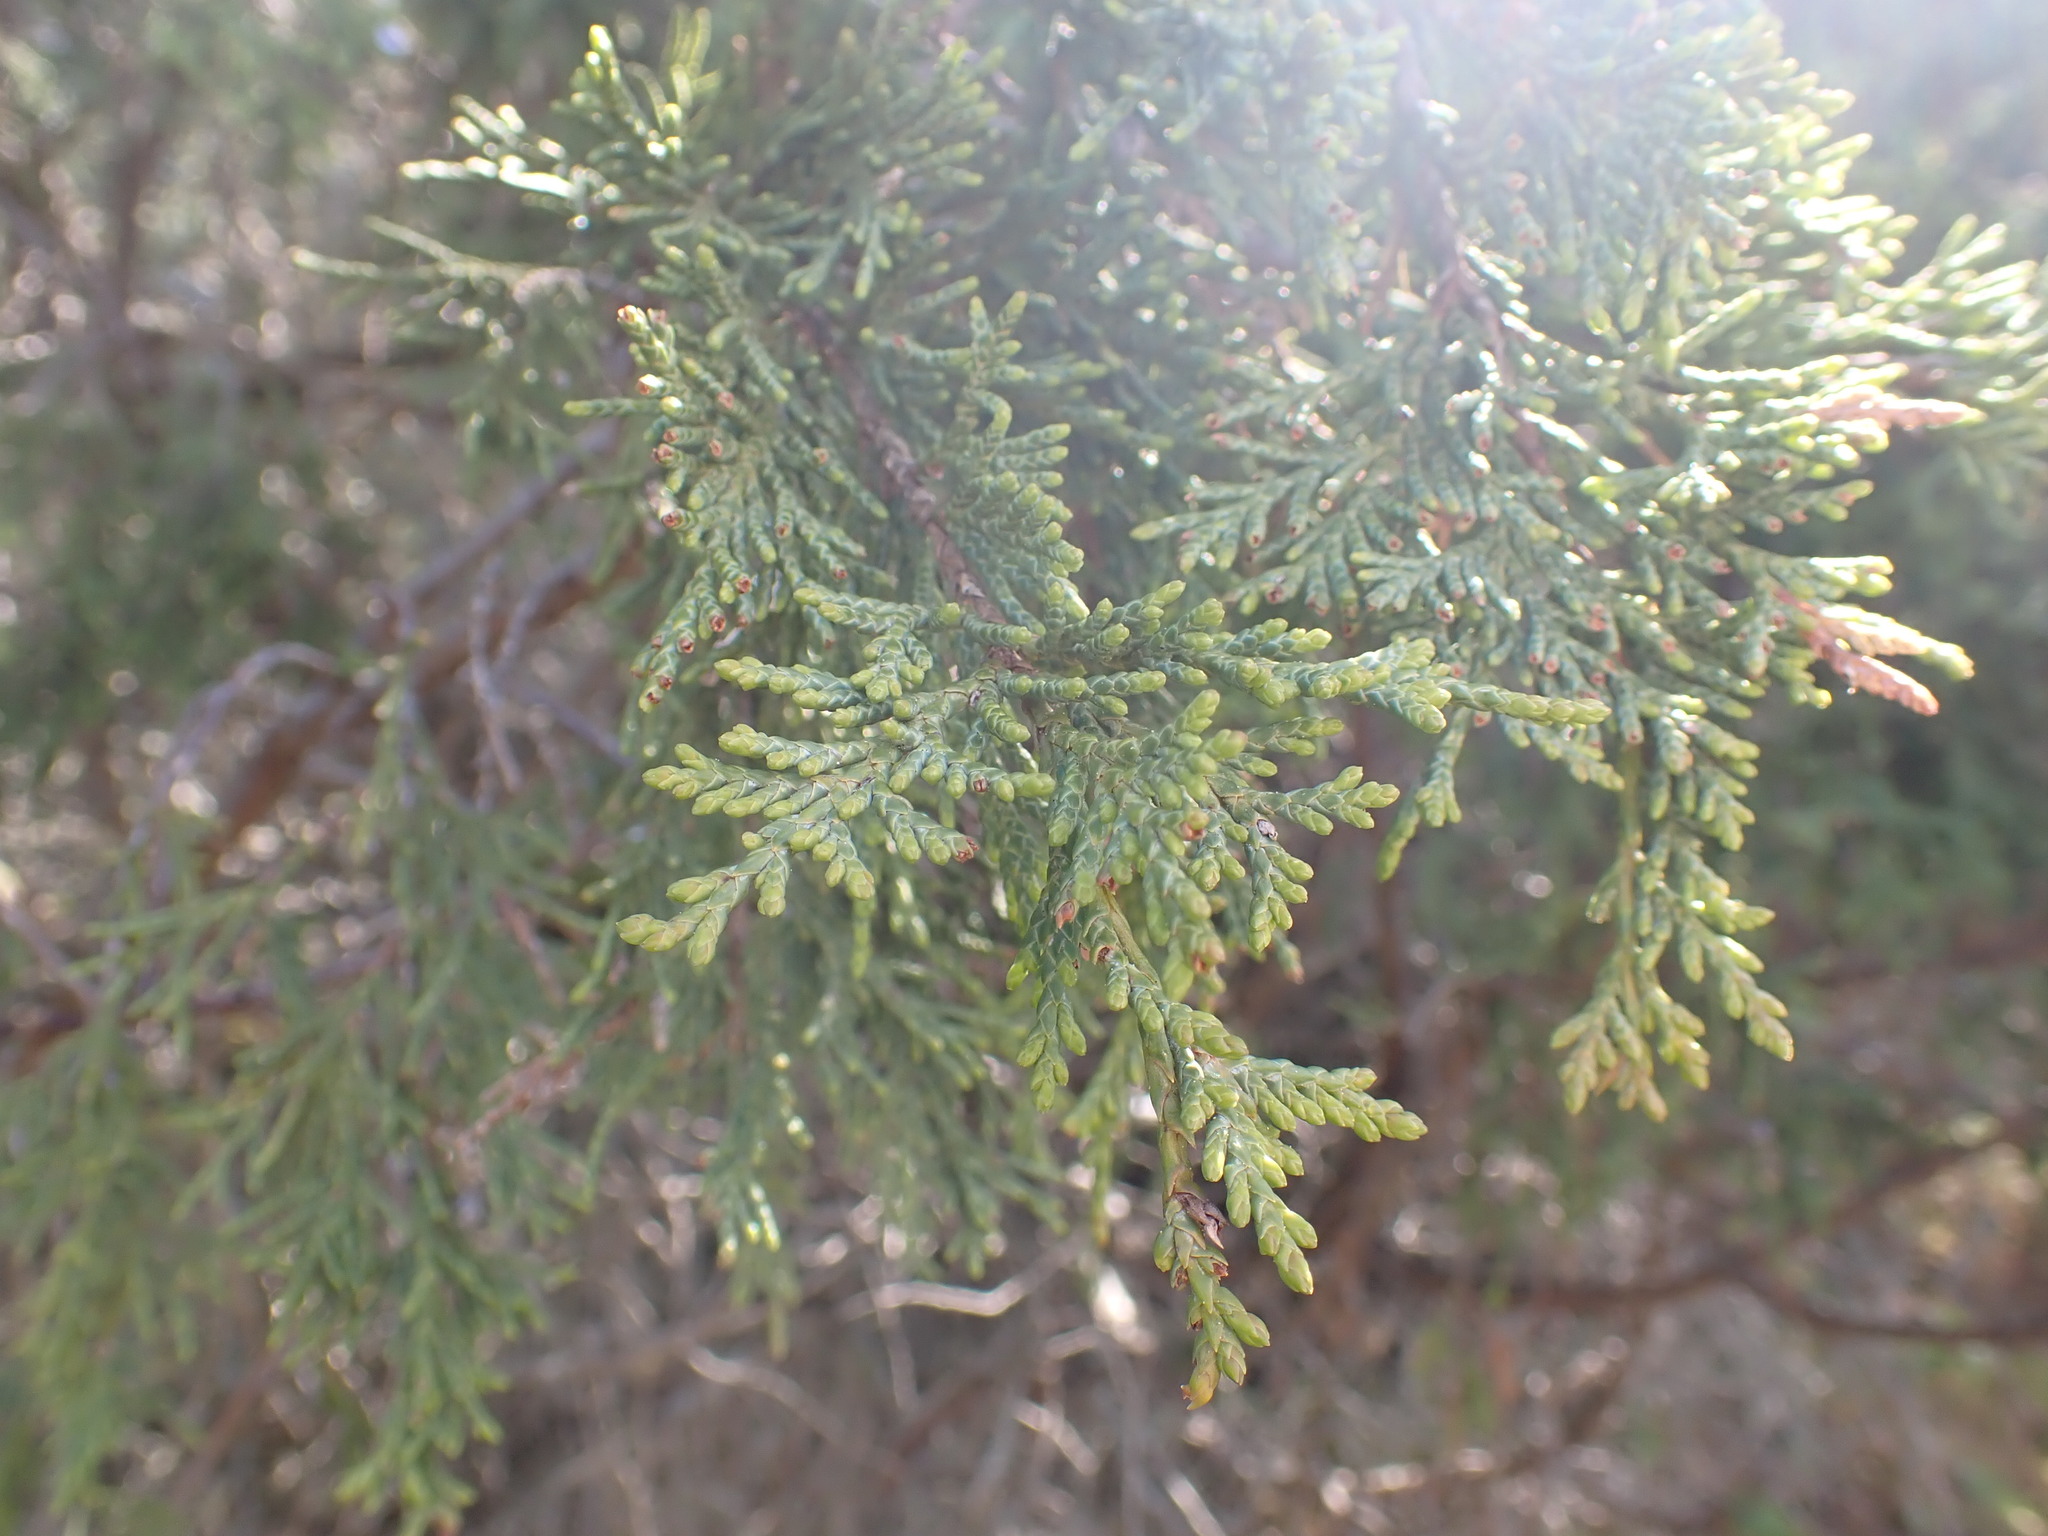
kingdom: Plantae
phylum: Tracheophyta
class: Pinopsida
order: Pinales
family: Cupressaceae
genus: Juniperus
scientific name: Juniperus scopulorum
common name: Rocky mountain juniper
